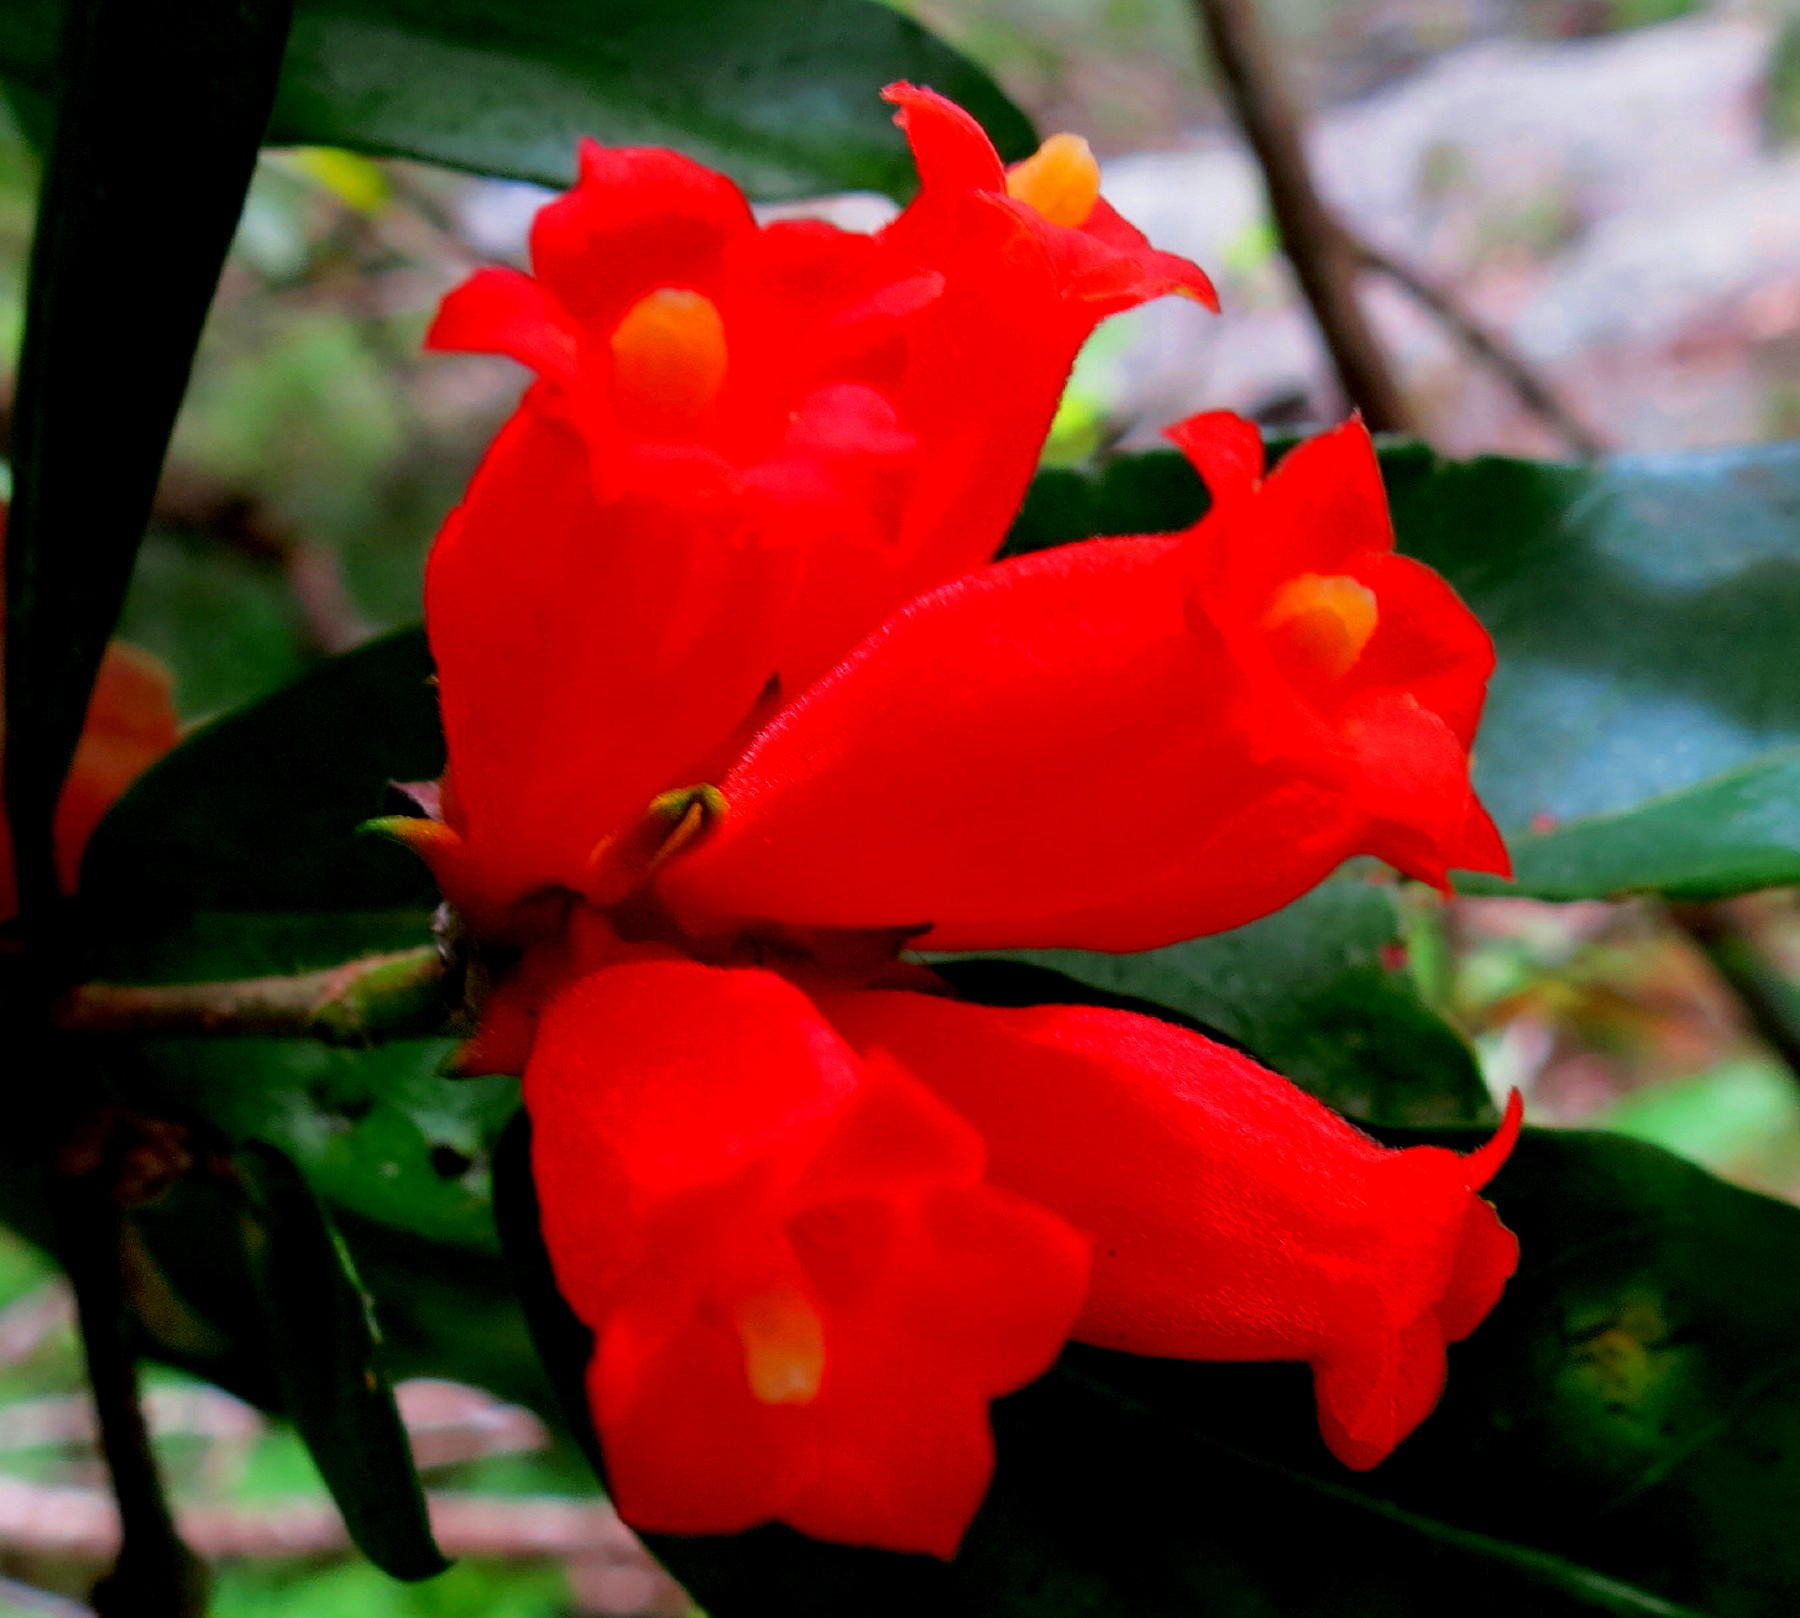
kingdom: Plantae
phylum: Tracheophyta
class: Magnoliopsida
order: Gentianales
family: Rubiaceae
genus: Burchellia
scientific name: Burchellia bubalina
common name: Wild pomegranate
